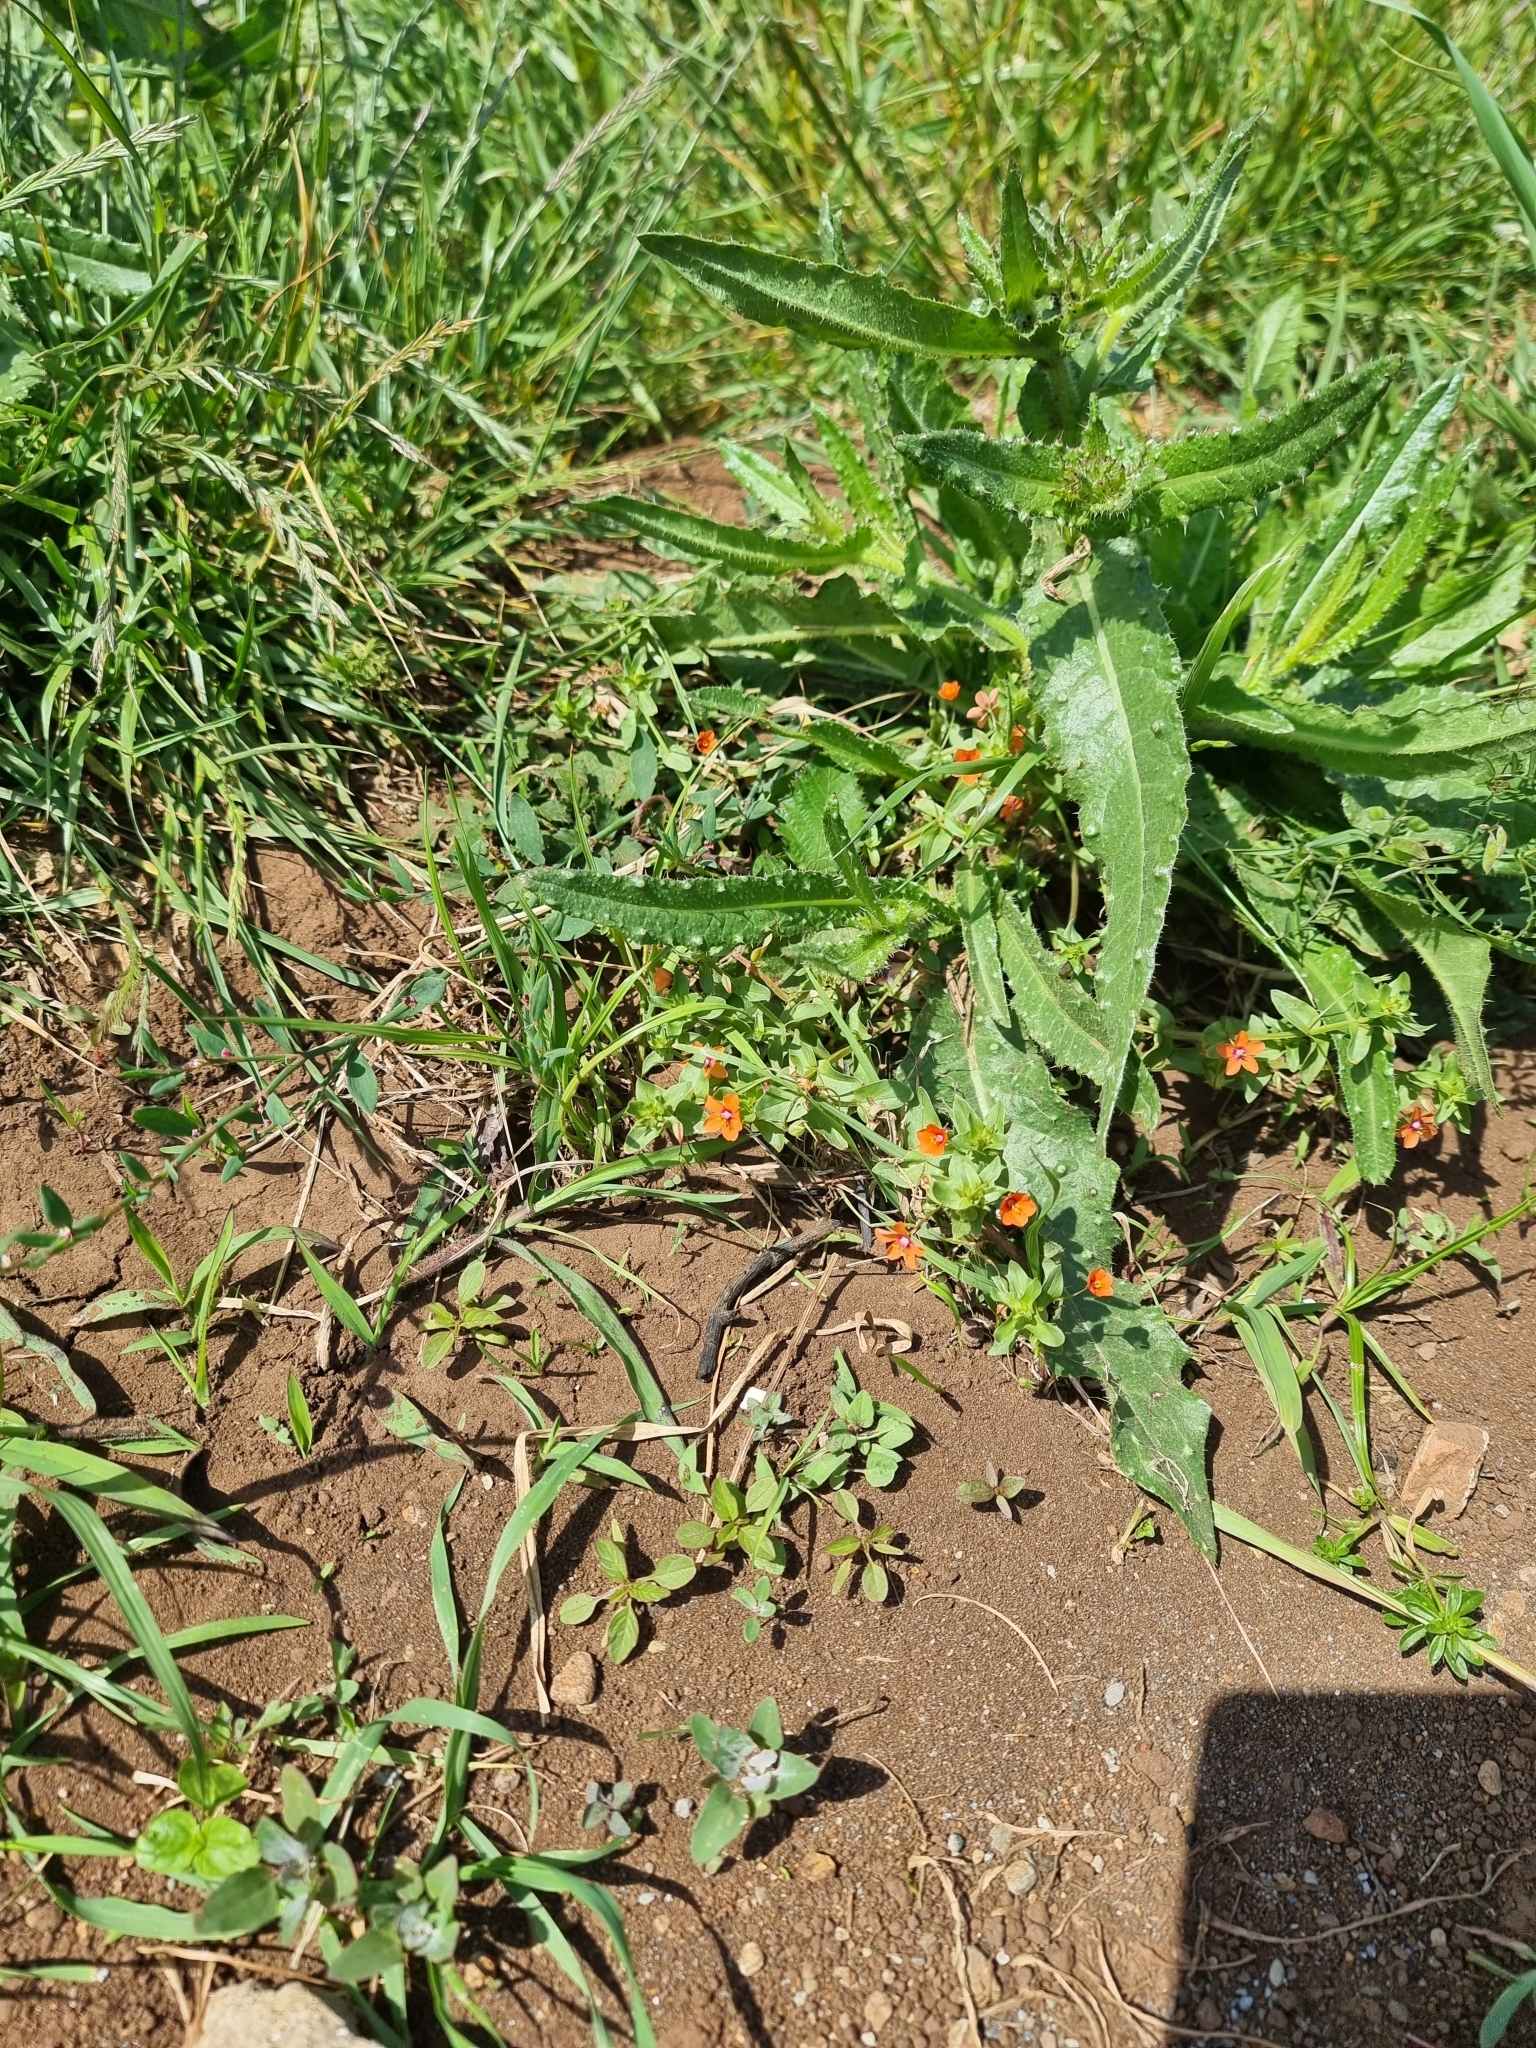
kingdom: Plantae
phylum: Tracheophyta
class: Magnoliopsida
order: Ericales
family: Primulaceae
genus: Lysimachia
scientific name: Lysimachia arvensis
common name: Scarlet pimpernel
